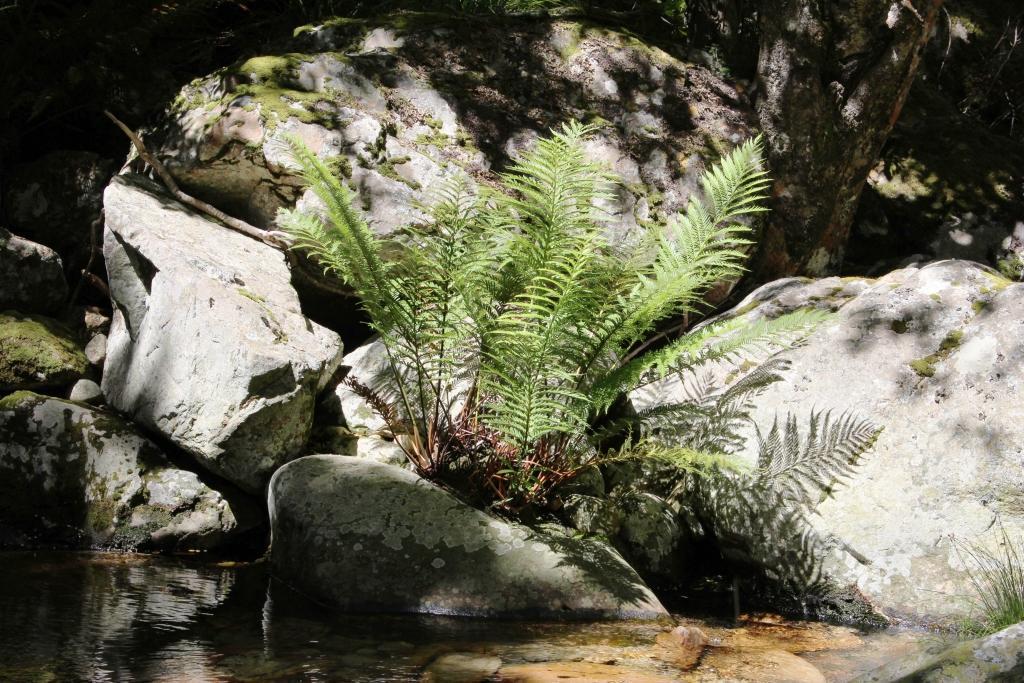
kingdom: Plantae
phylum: Tracheophyta
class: Polypodiopsida
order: Osmundales
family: Osmundaceae
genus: Todea
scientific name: Todea barbara
